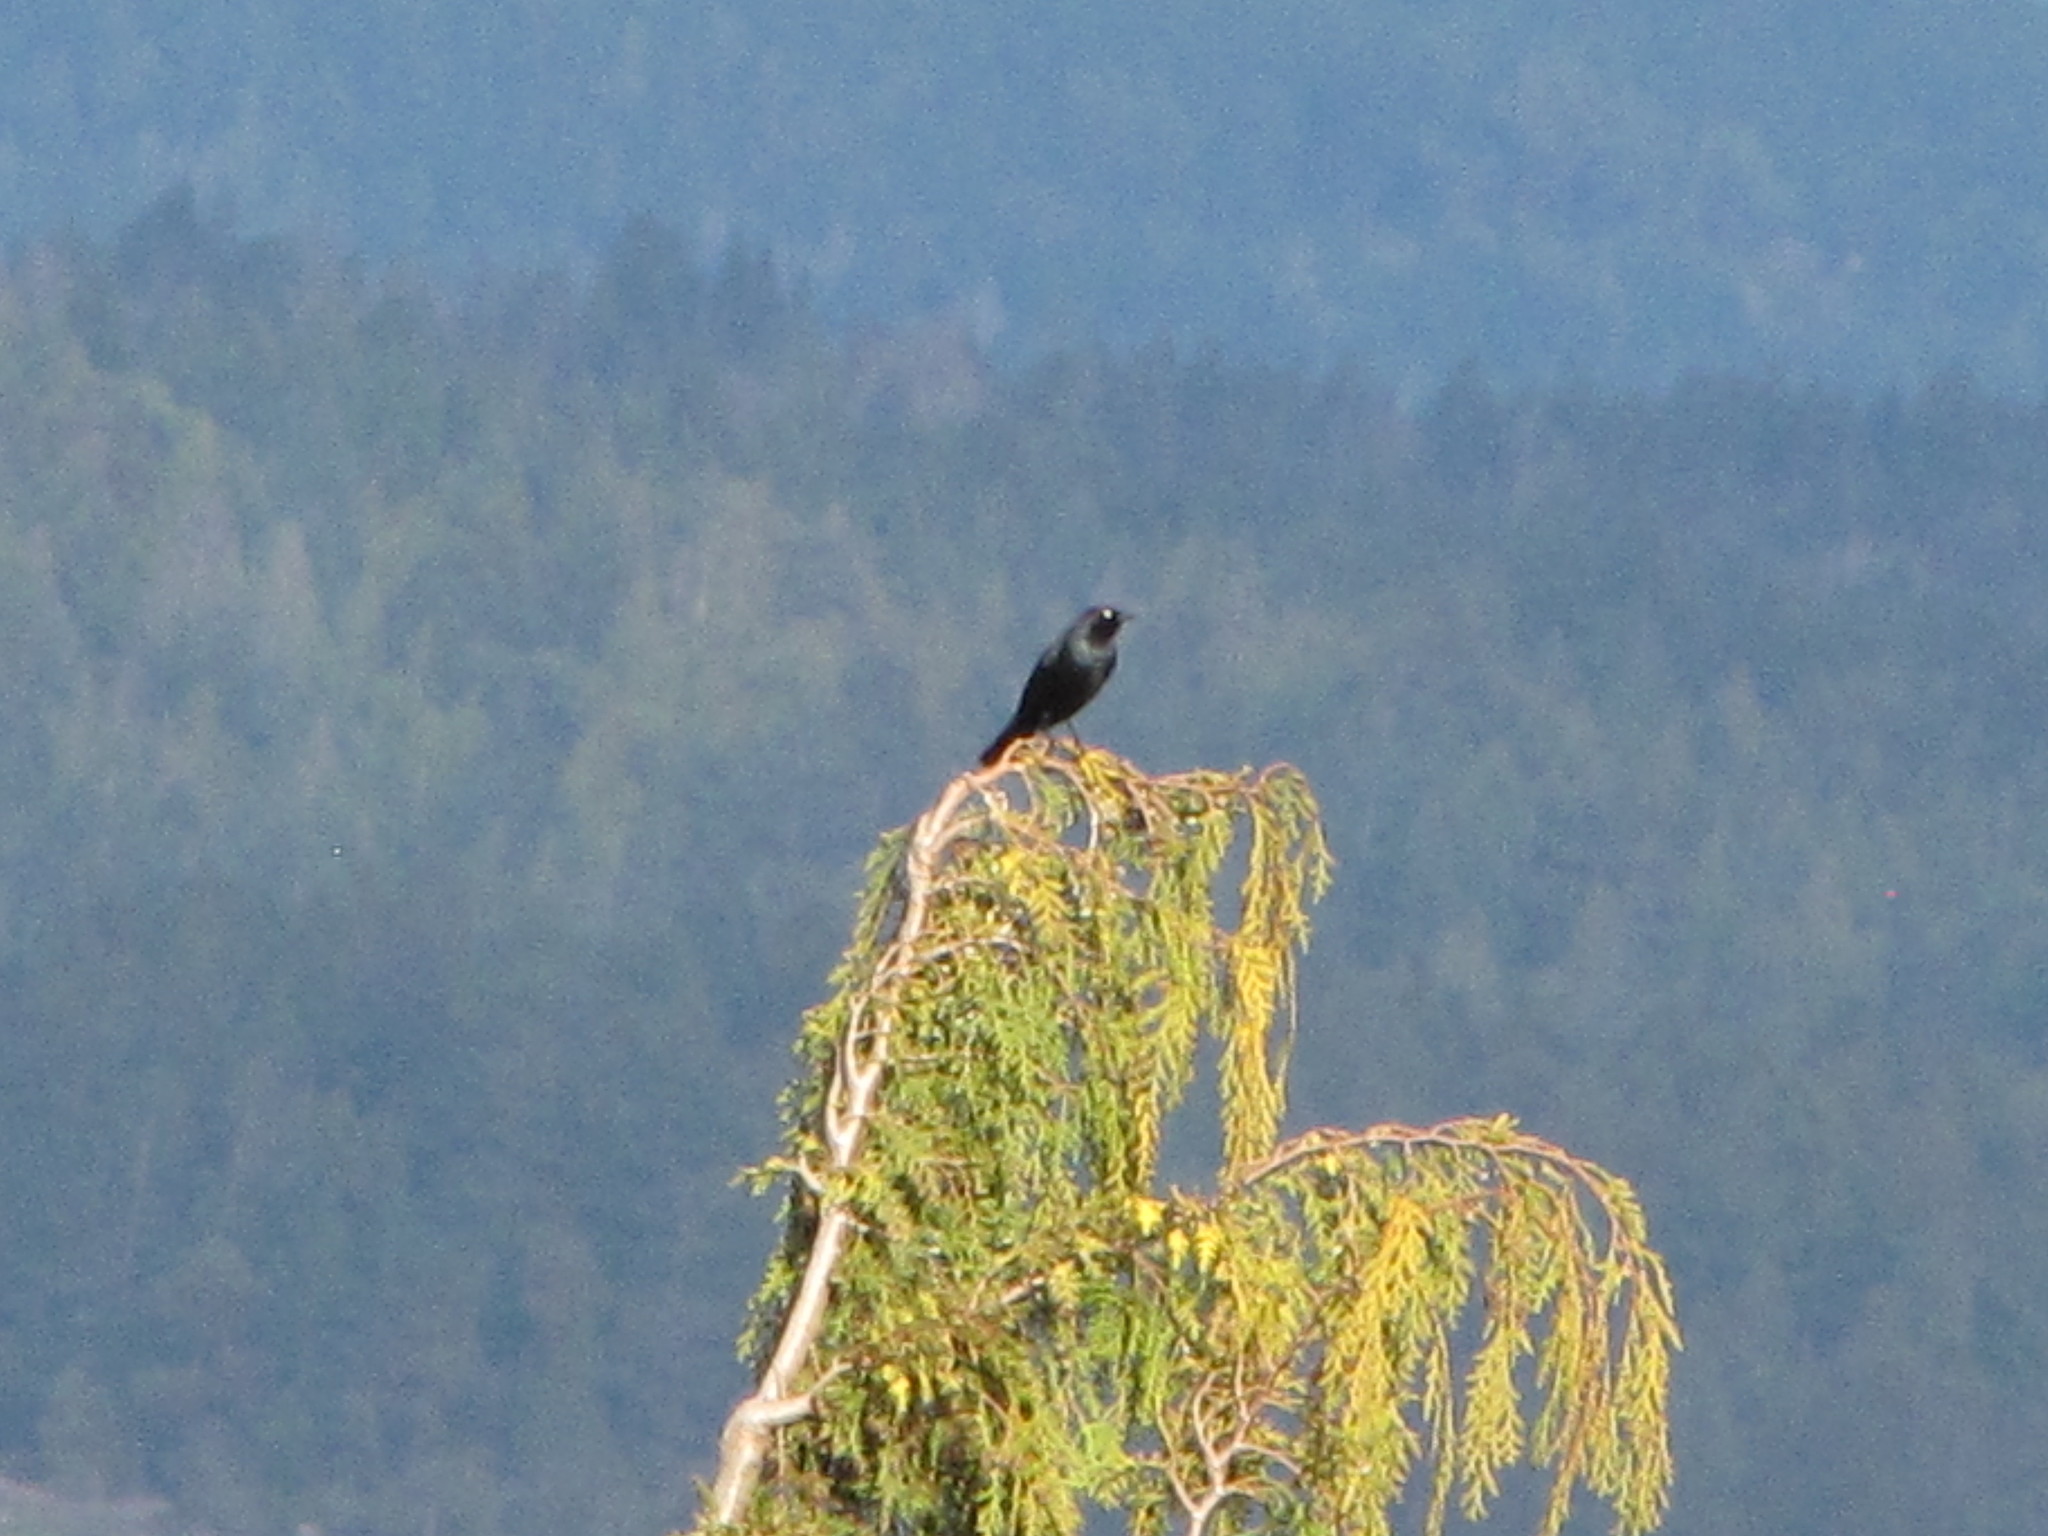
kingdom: Animalia
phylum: Chordata
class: Aves
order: Passeriformes
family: Icteridae
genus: Euphagus
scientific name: Euphagus cyanocephalus
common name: Brewer's blackbird
